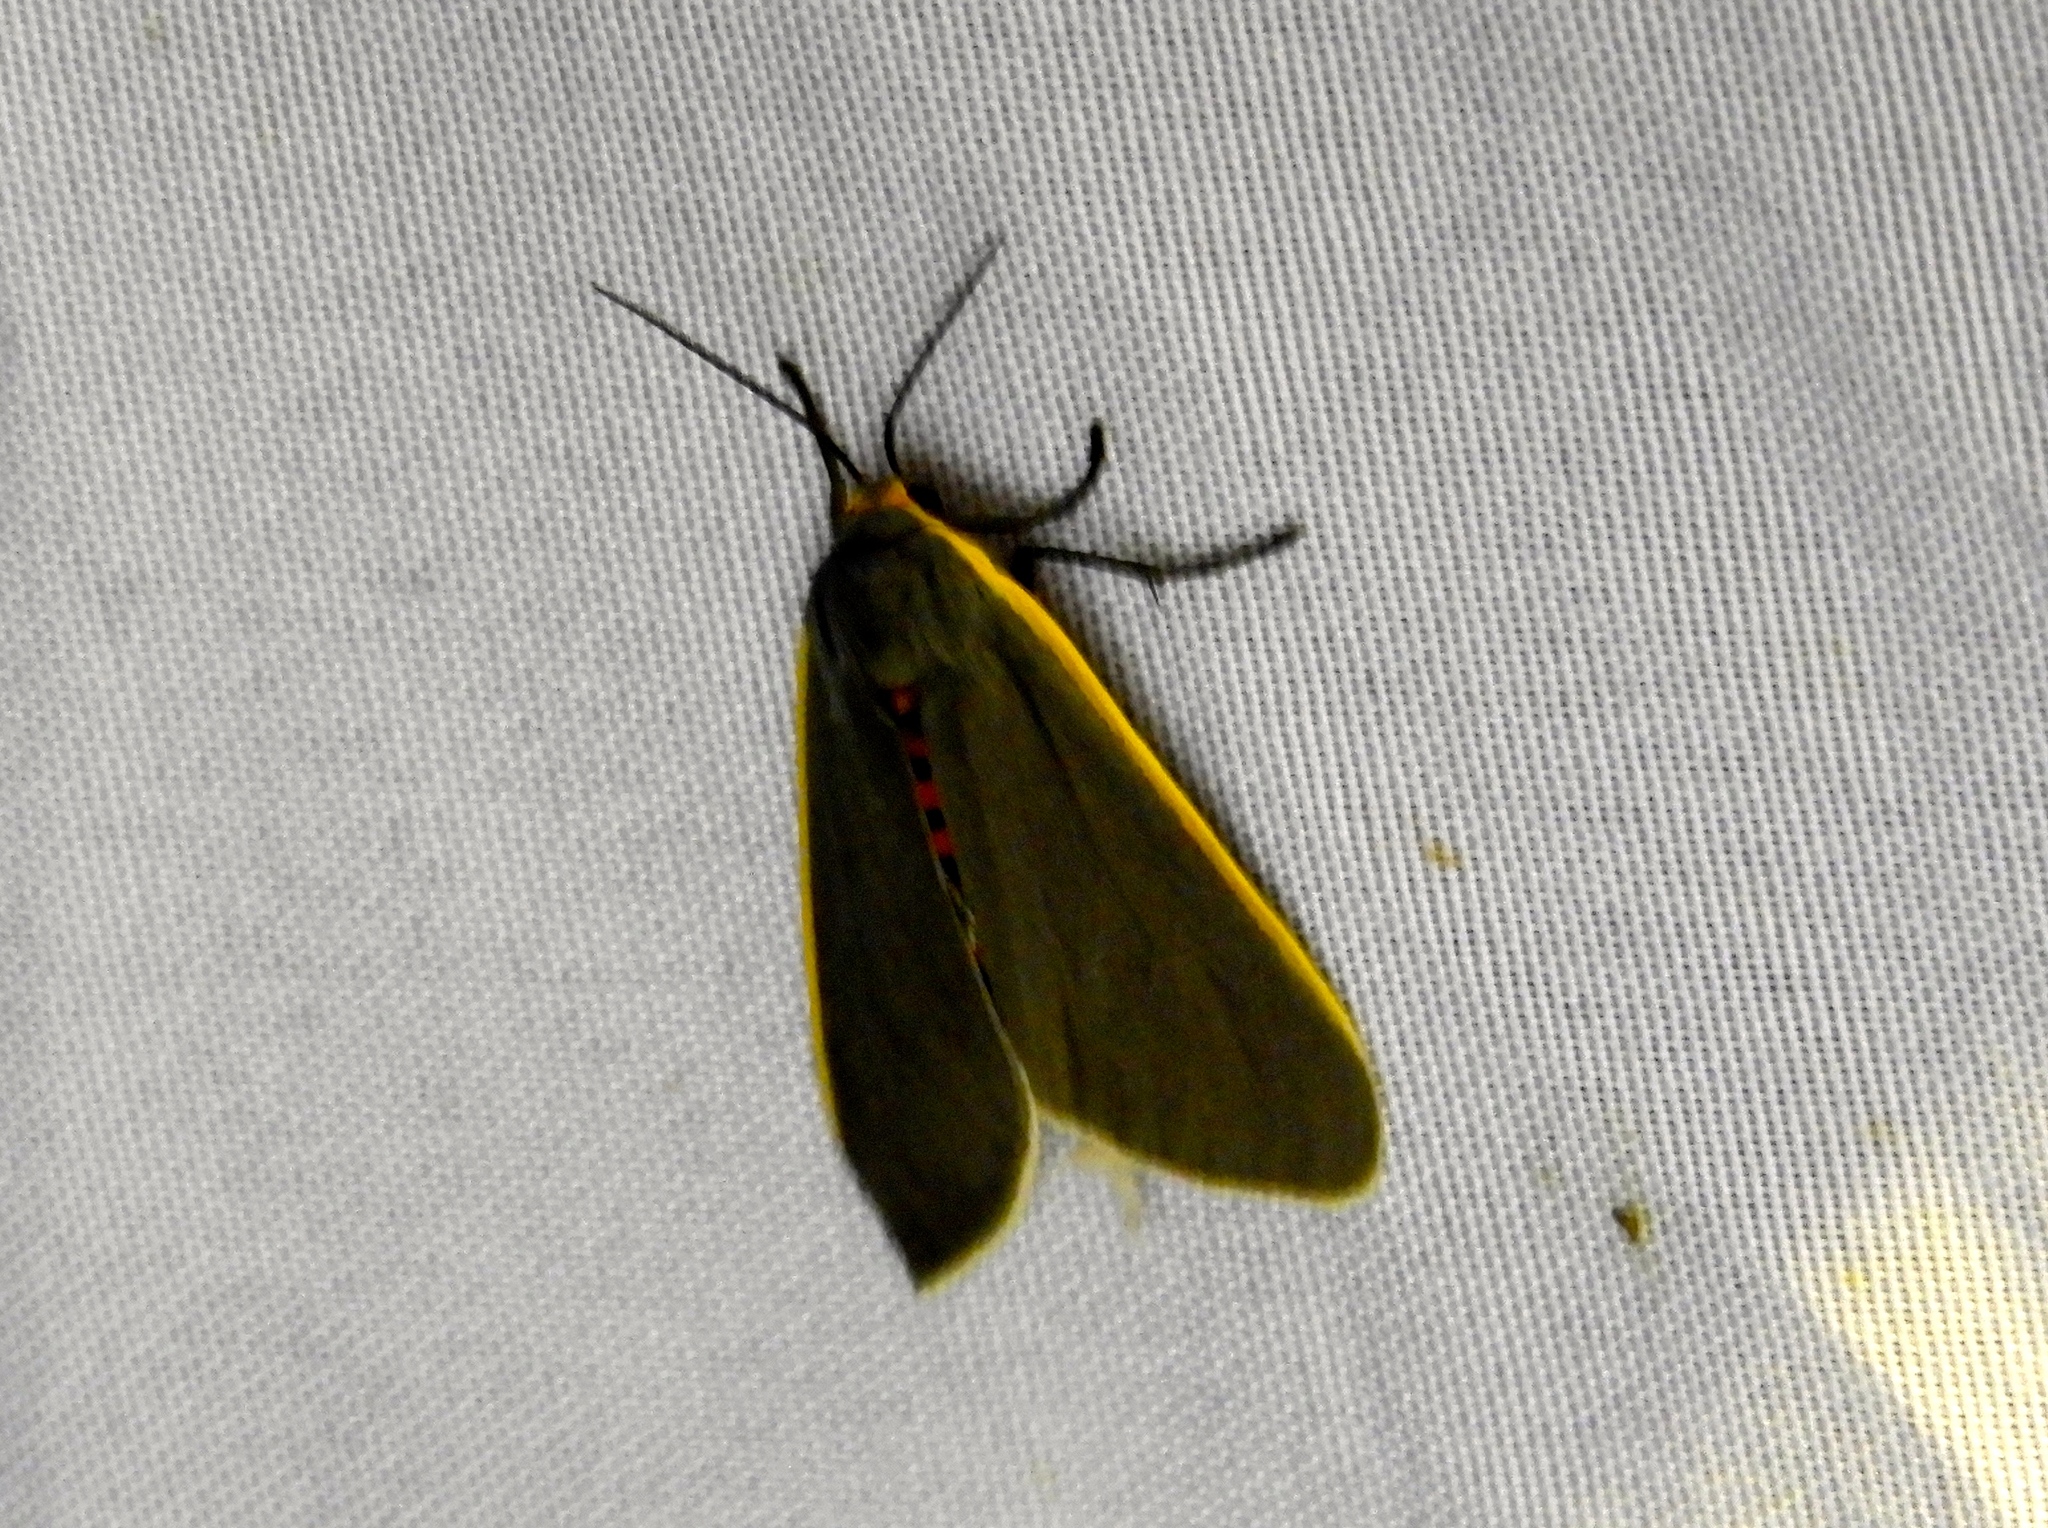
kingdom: Animalia
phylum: Arthropoda
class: Insecta
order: Lepidoptera
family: Erebidae
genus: Euchaetes
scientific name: Euchaetes antica
